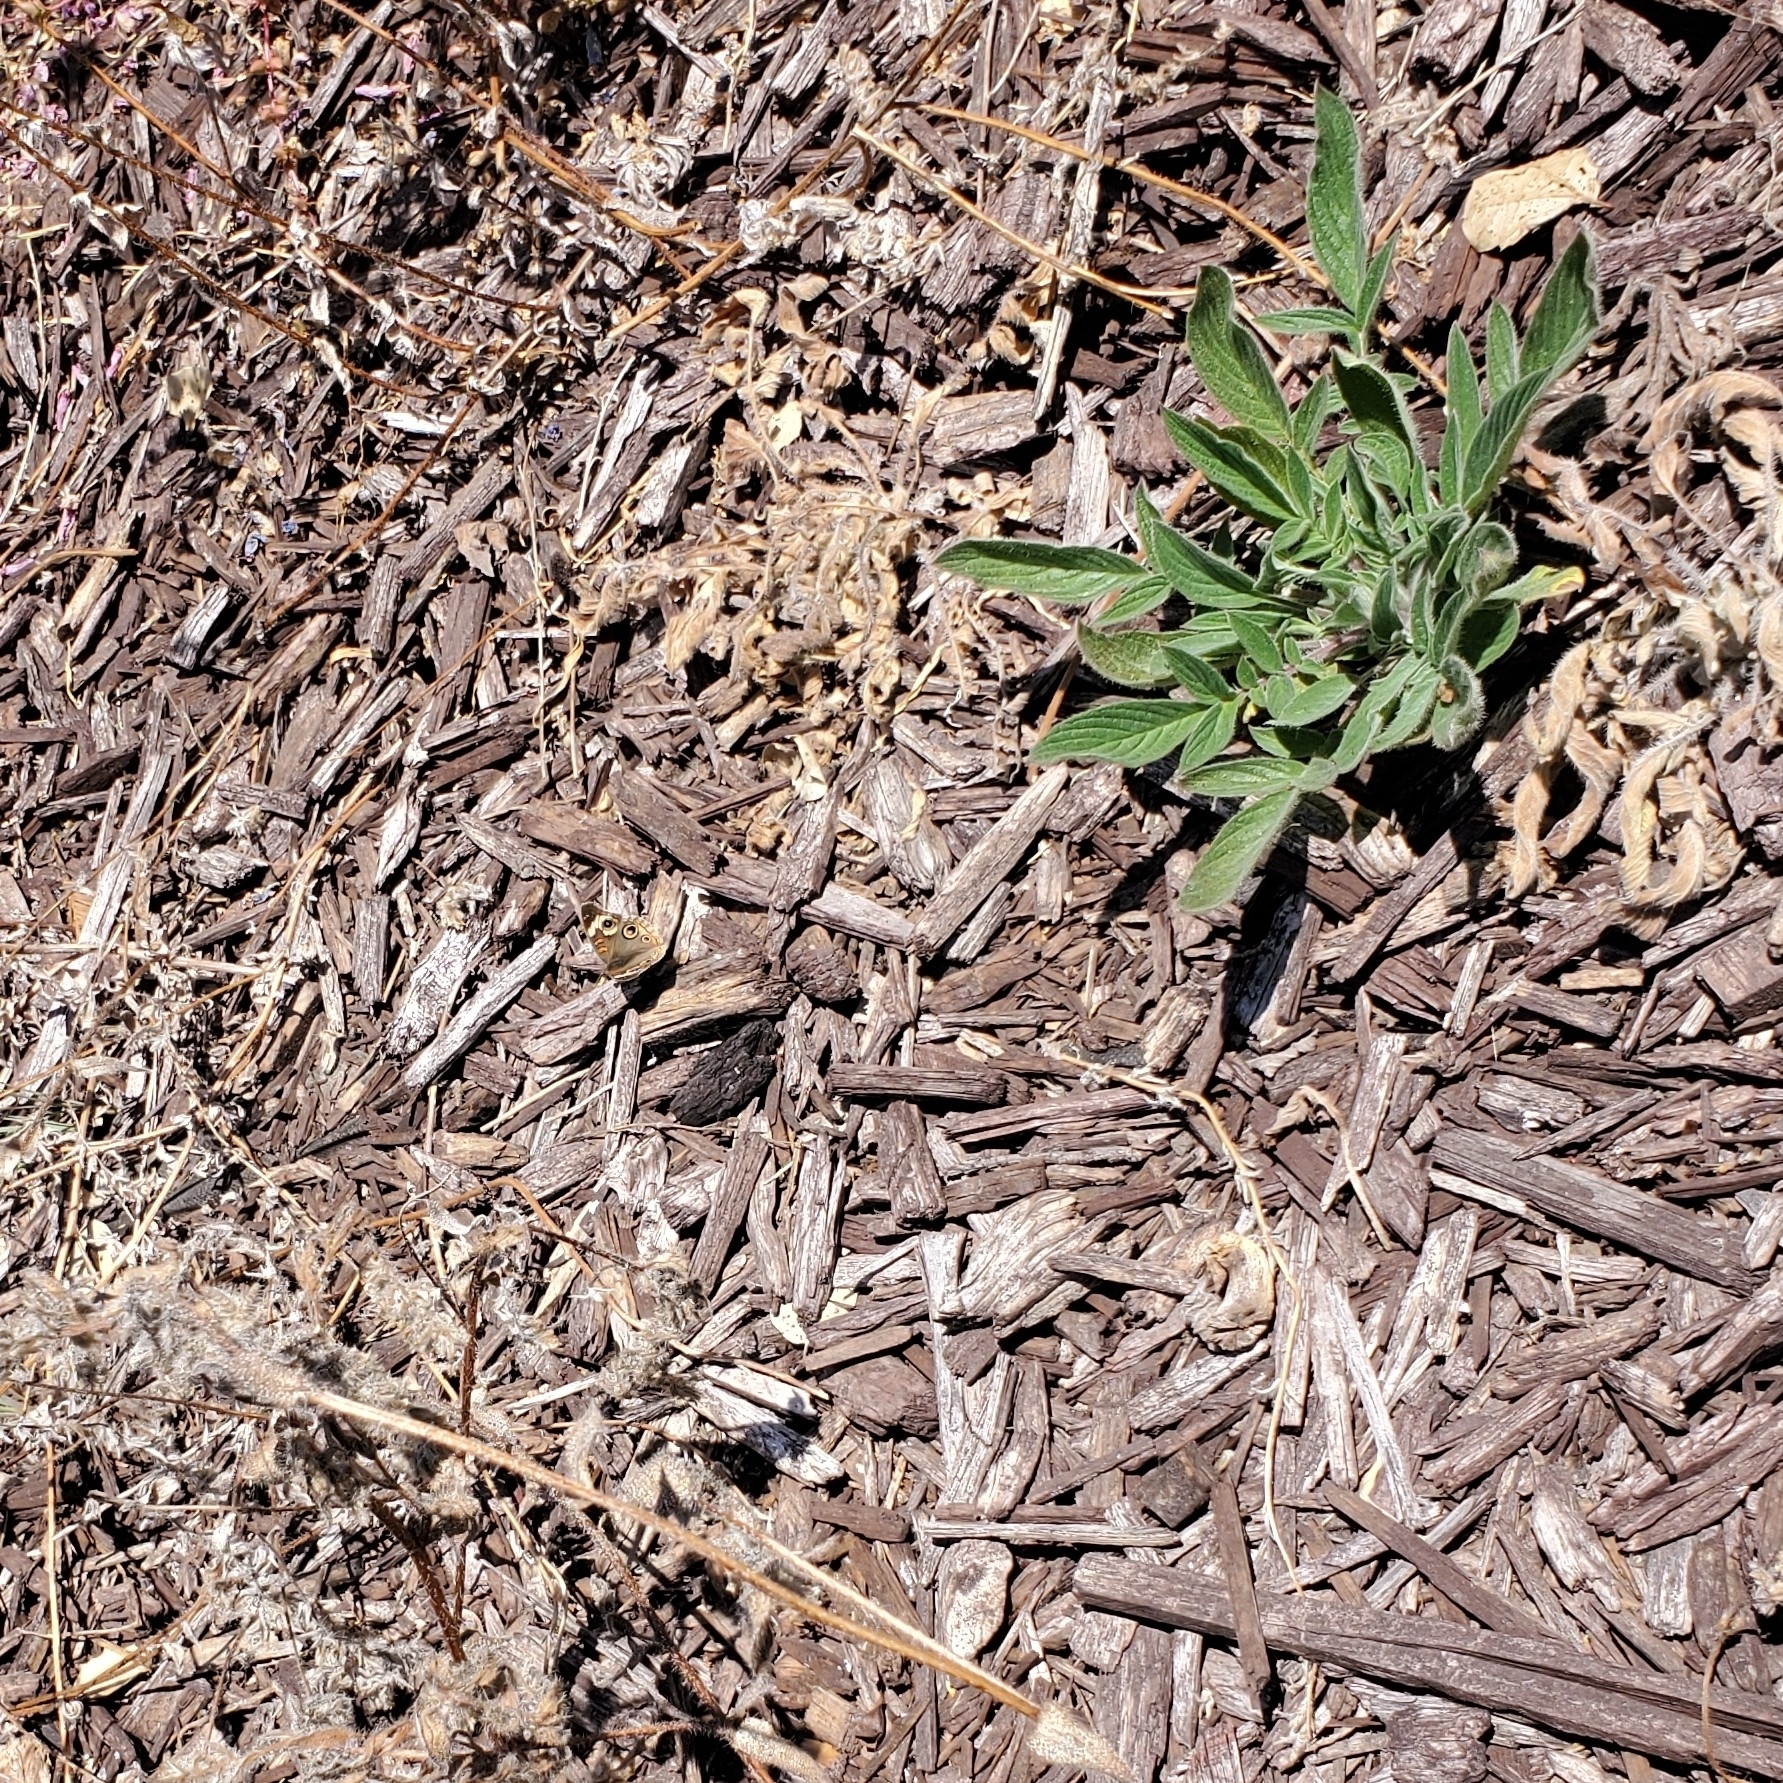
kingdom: Animalia
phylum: Arthropoda
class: Insecta
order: Lepidoptera
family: Nymphalidae
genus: Junonia
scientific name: Junonia grisea
